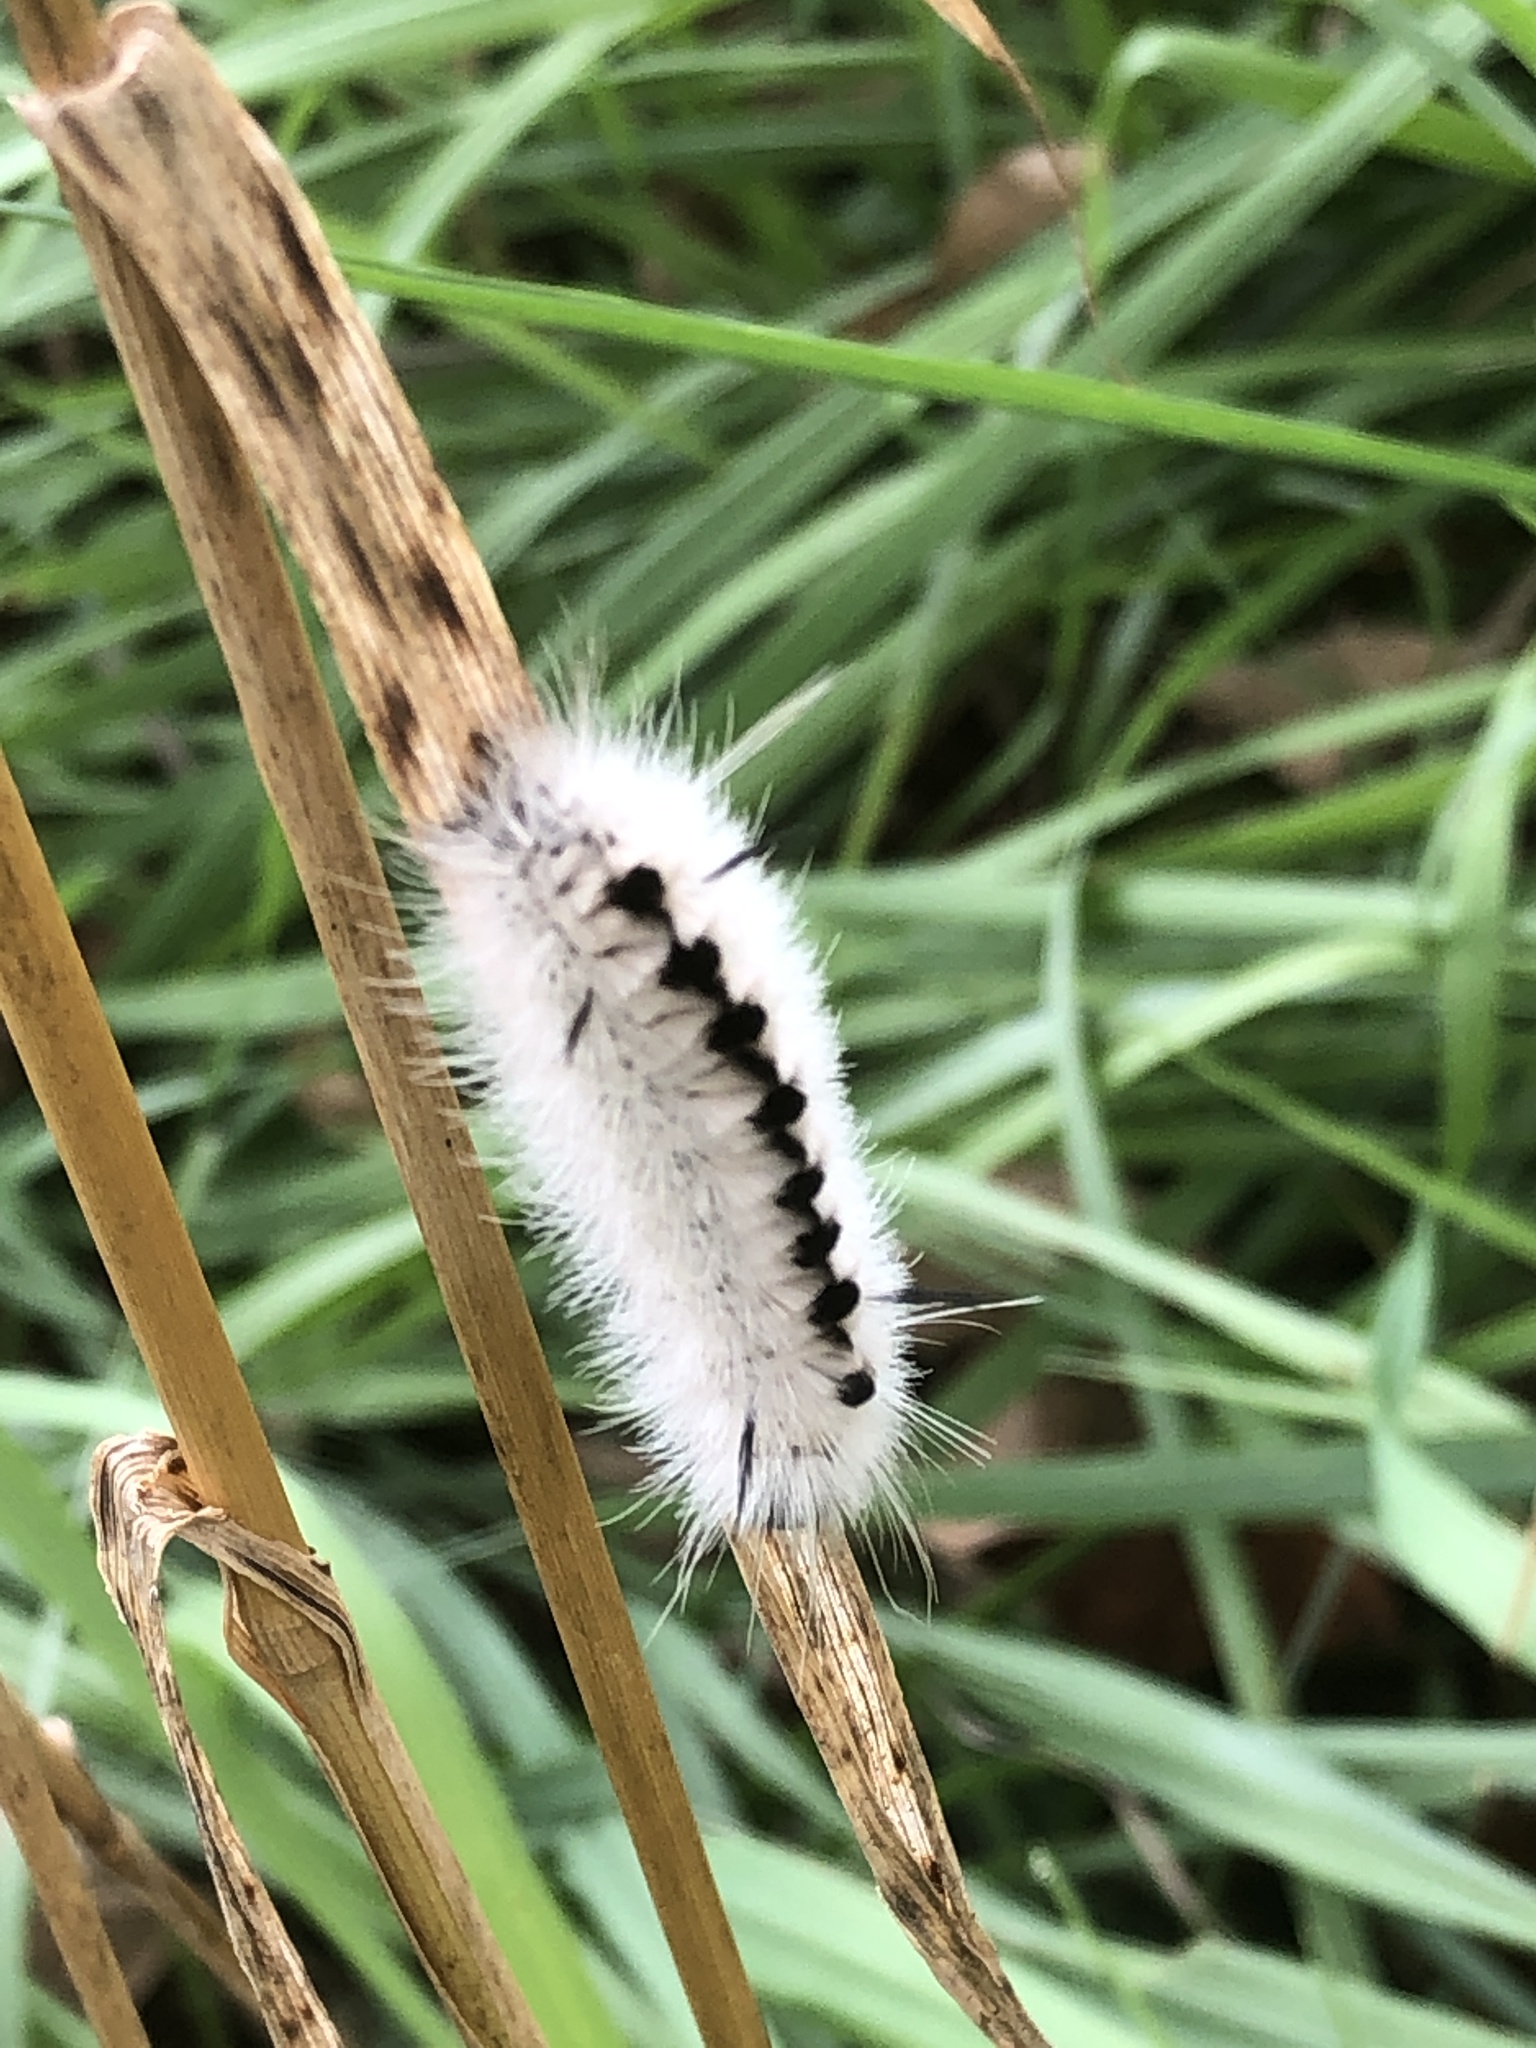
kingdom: Animalia
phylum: Arthropoda
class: Insecta
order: Lepidoptera
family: Erebidae
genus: Lophocampa
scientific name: Lophocampa caryae
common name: Hickory tussock moth
